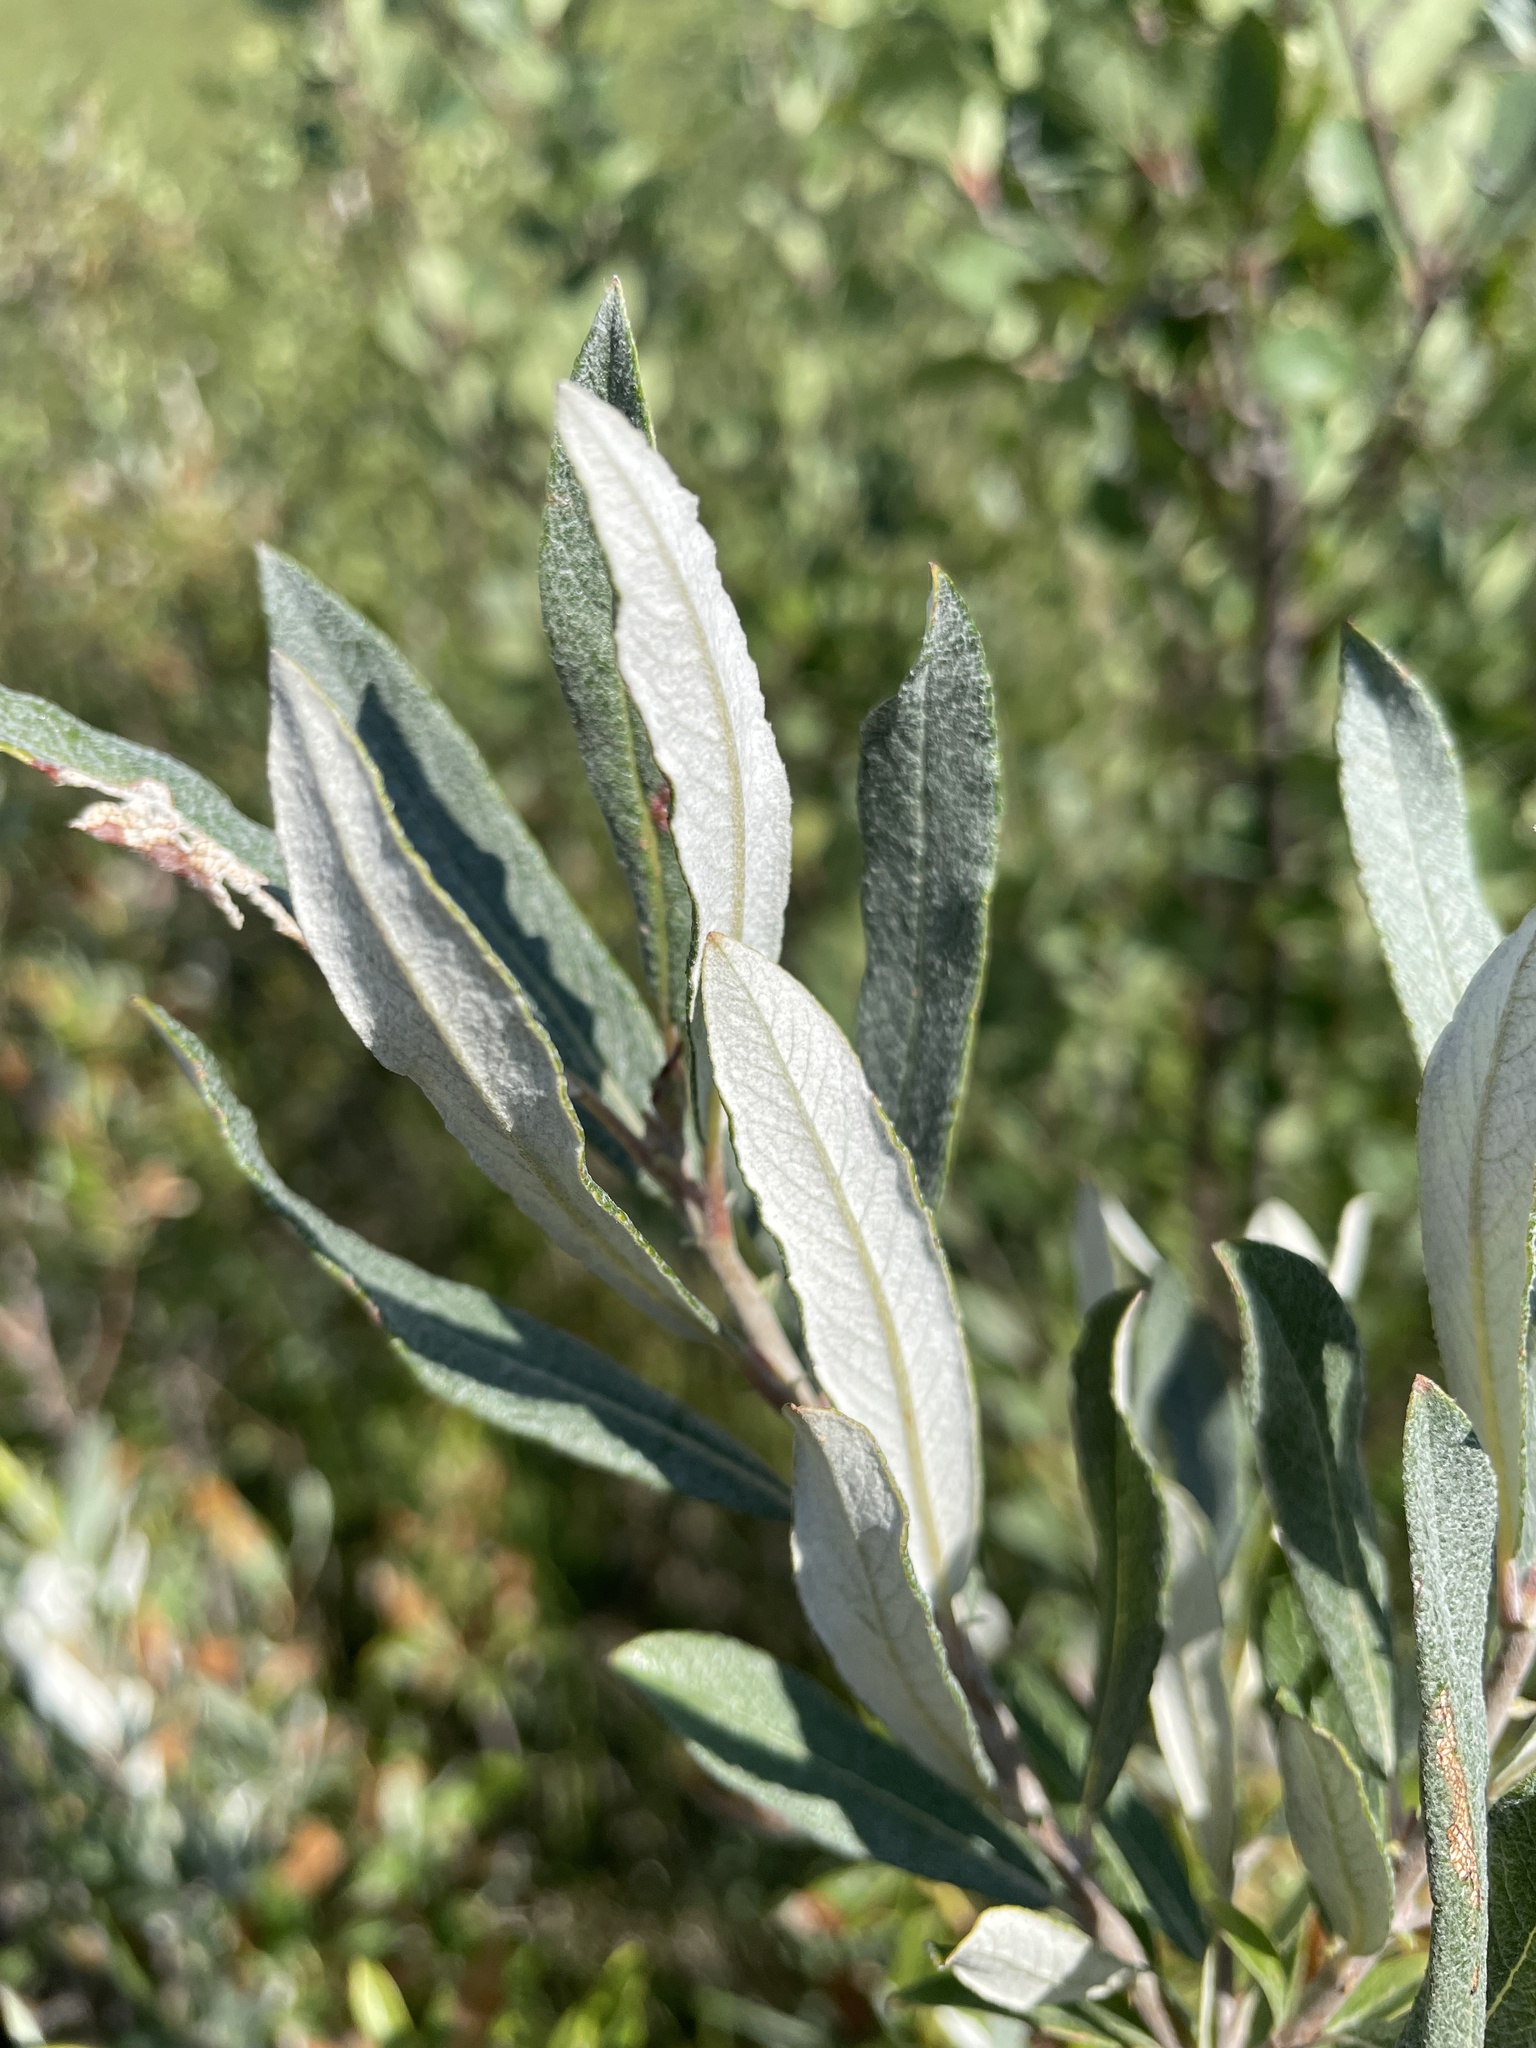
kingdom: Plantae
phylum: Tracheophyta
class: Magnoliopsida
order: Malpighiales
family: Salicaceae
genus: Salix
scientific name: Salix candida
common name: Hoary willow
